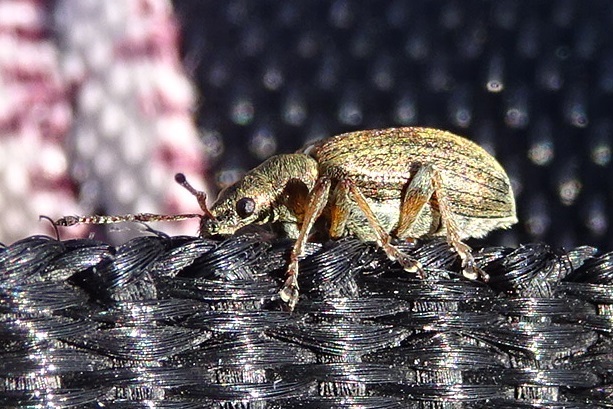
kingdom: Animalia
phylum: Arthropoda
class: Insecta
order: Coleoptera
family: Curculionidae
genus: Phyllobius
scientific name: Phyllobius pyri
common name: Common leaf weevil
